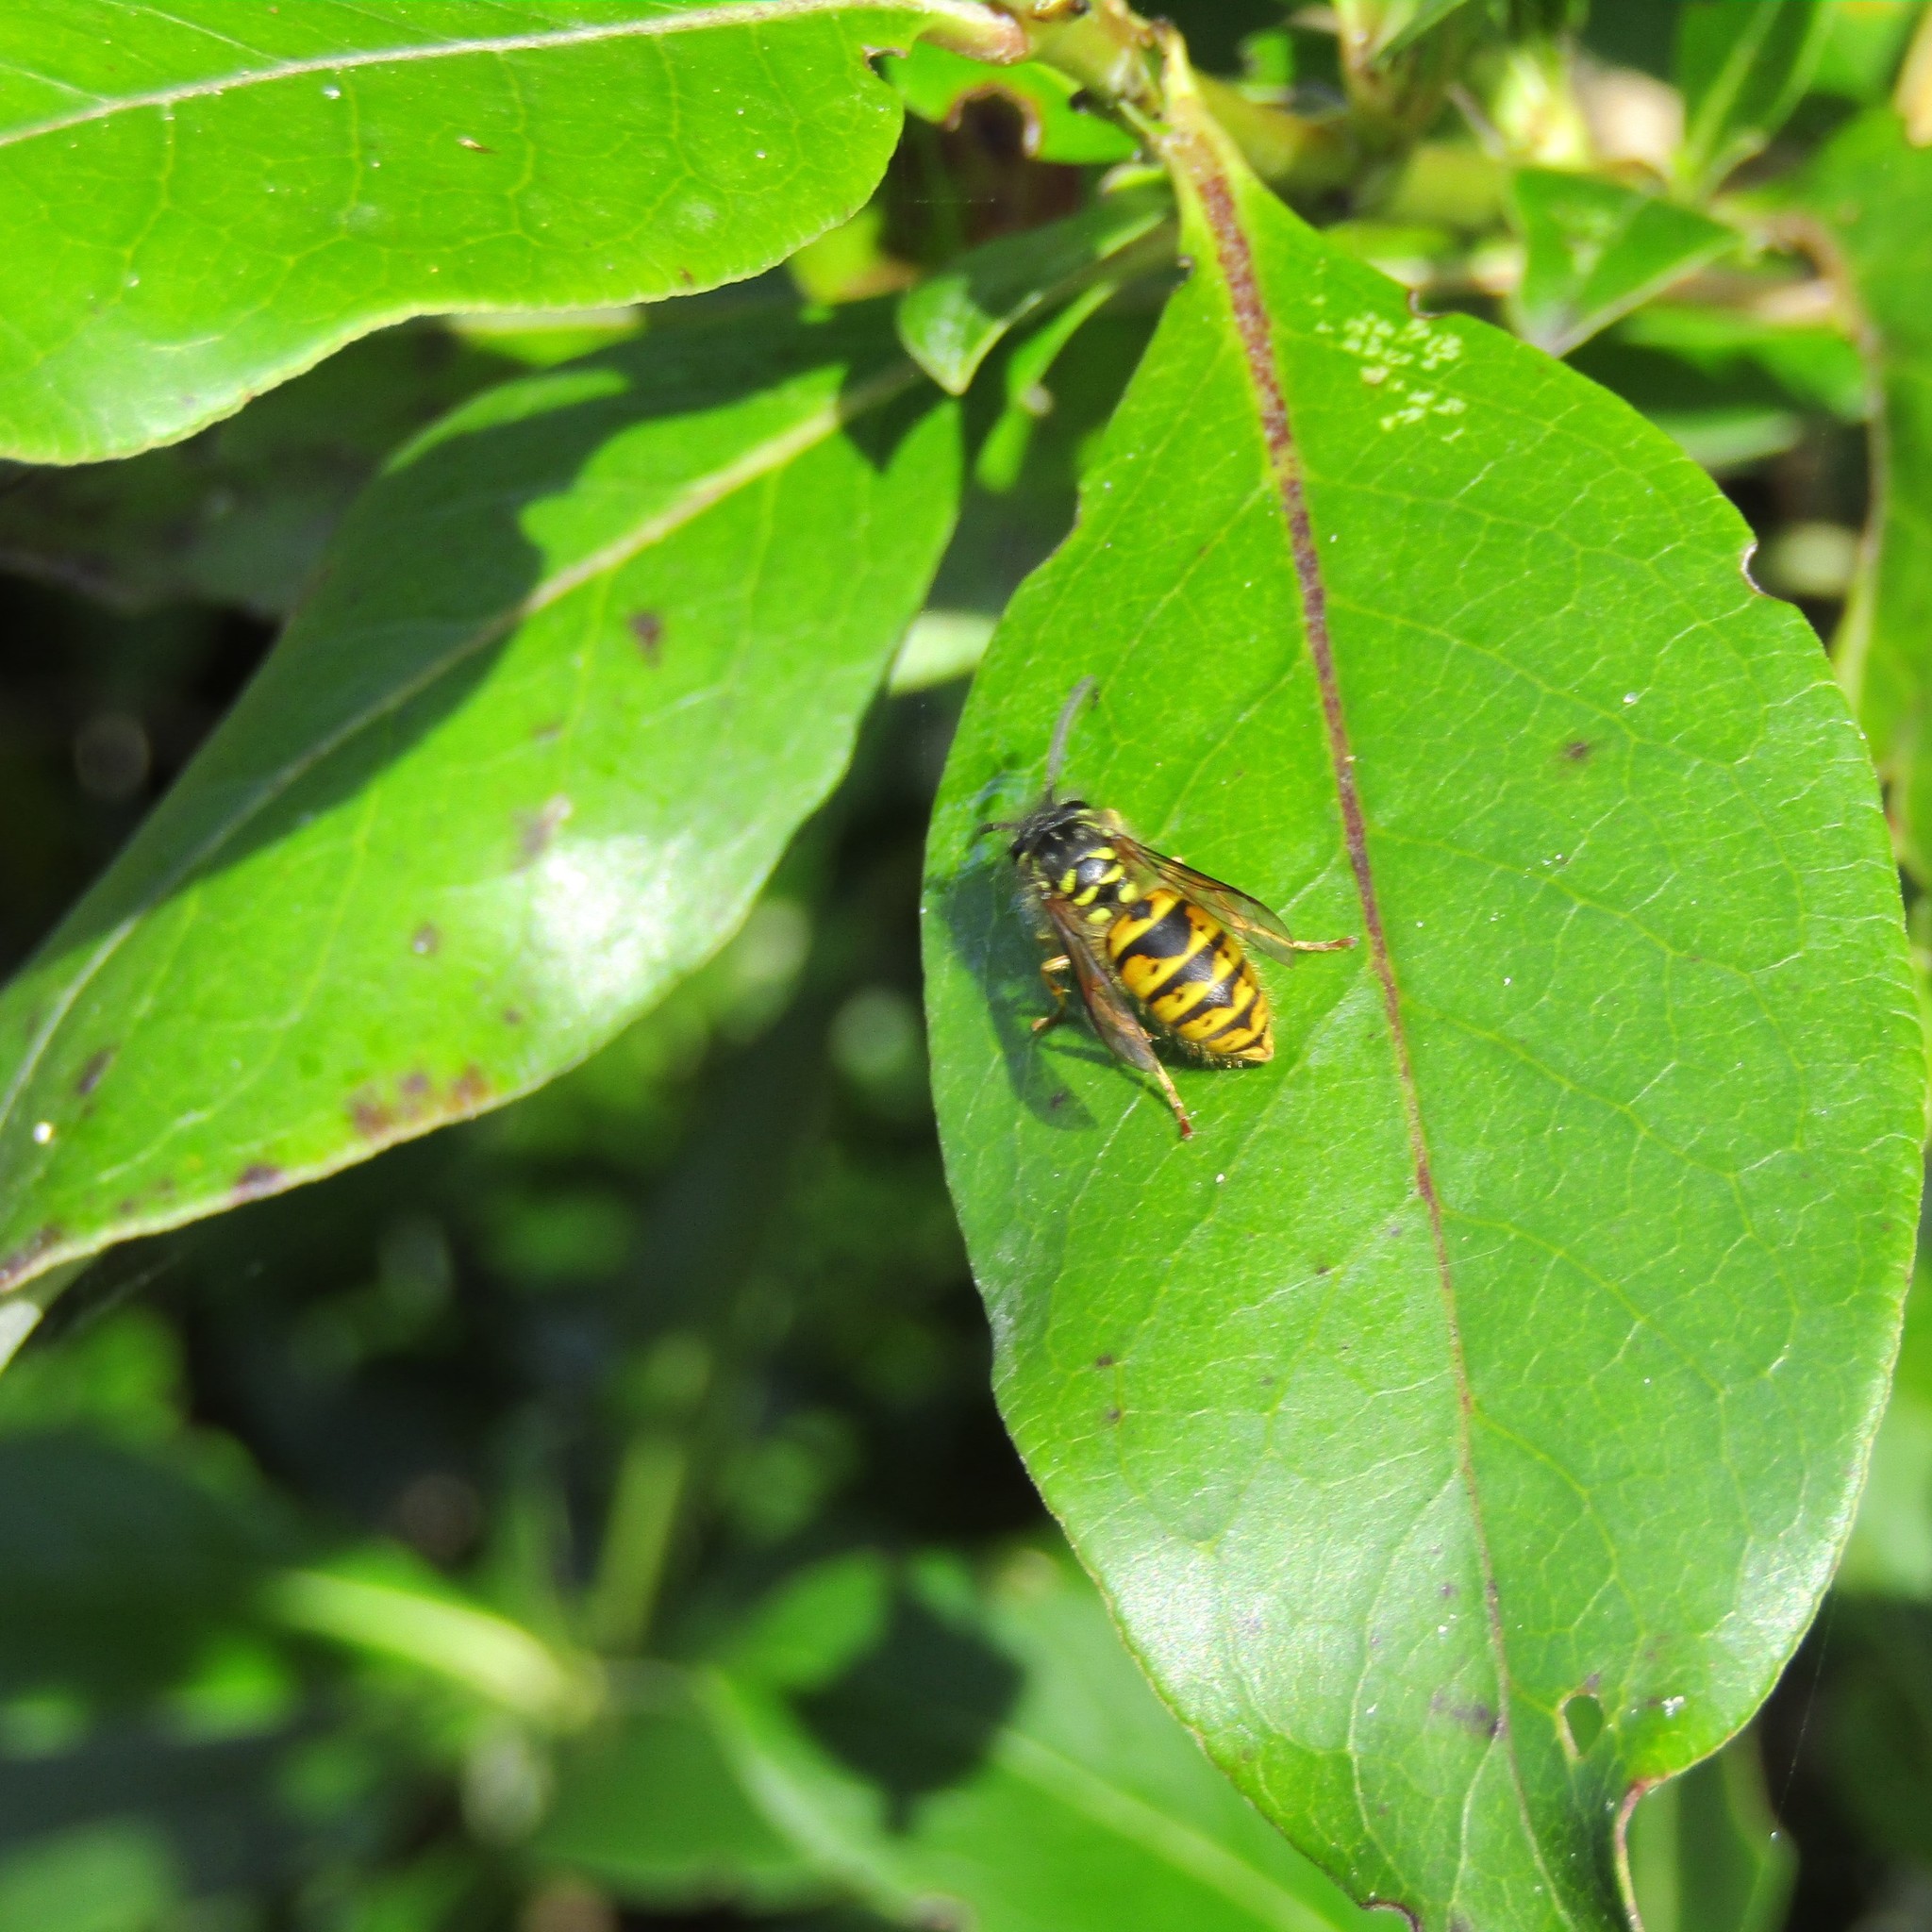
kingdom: Plantae
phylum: Tracheophyta
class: Magnoliopsida
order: Gentianales
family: Rubiaceae
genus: Coprosma
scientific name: Coprosma robusta
